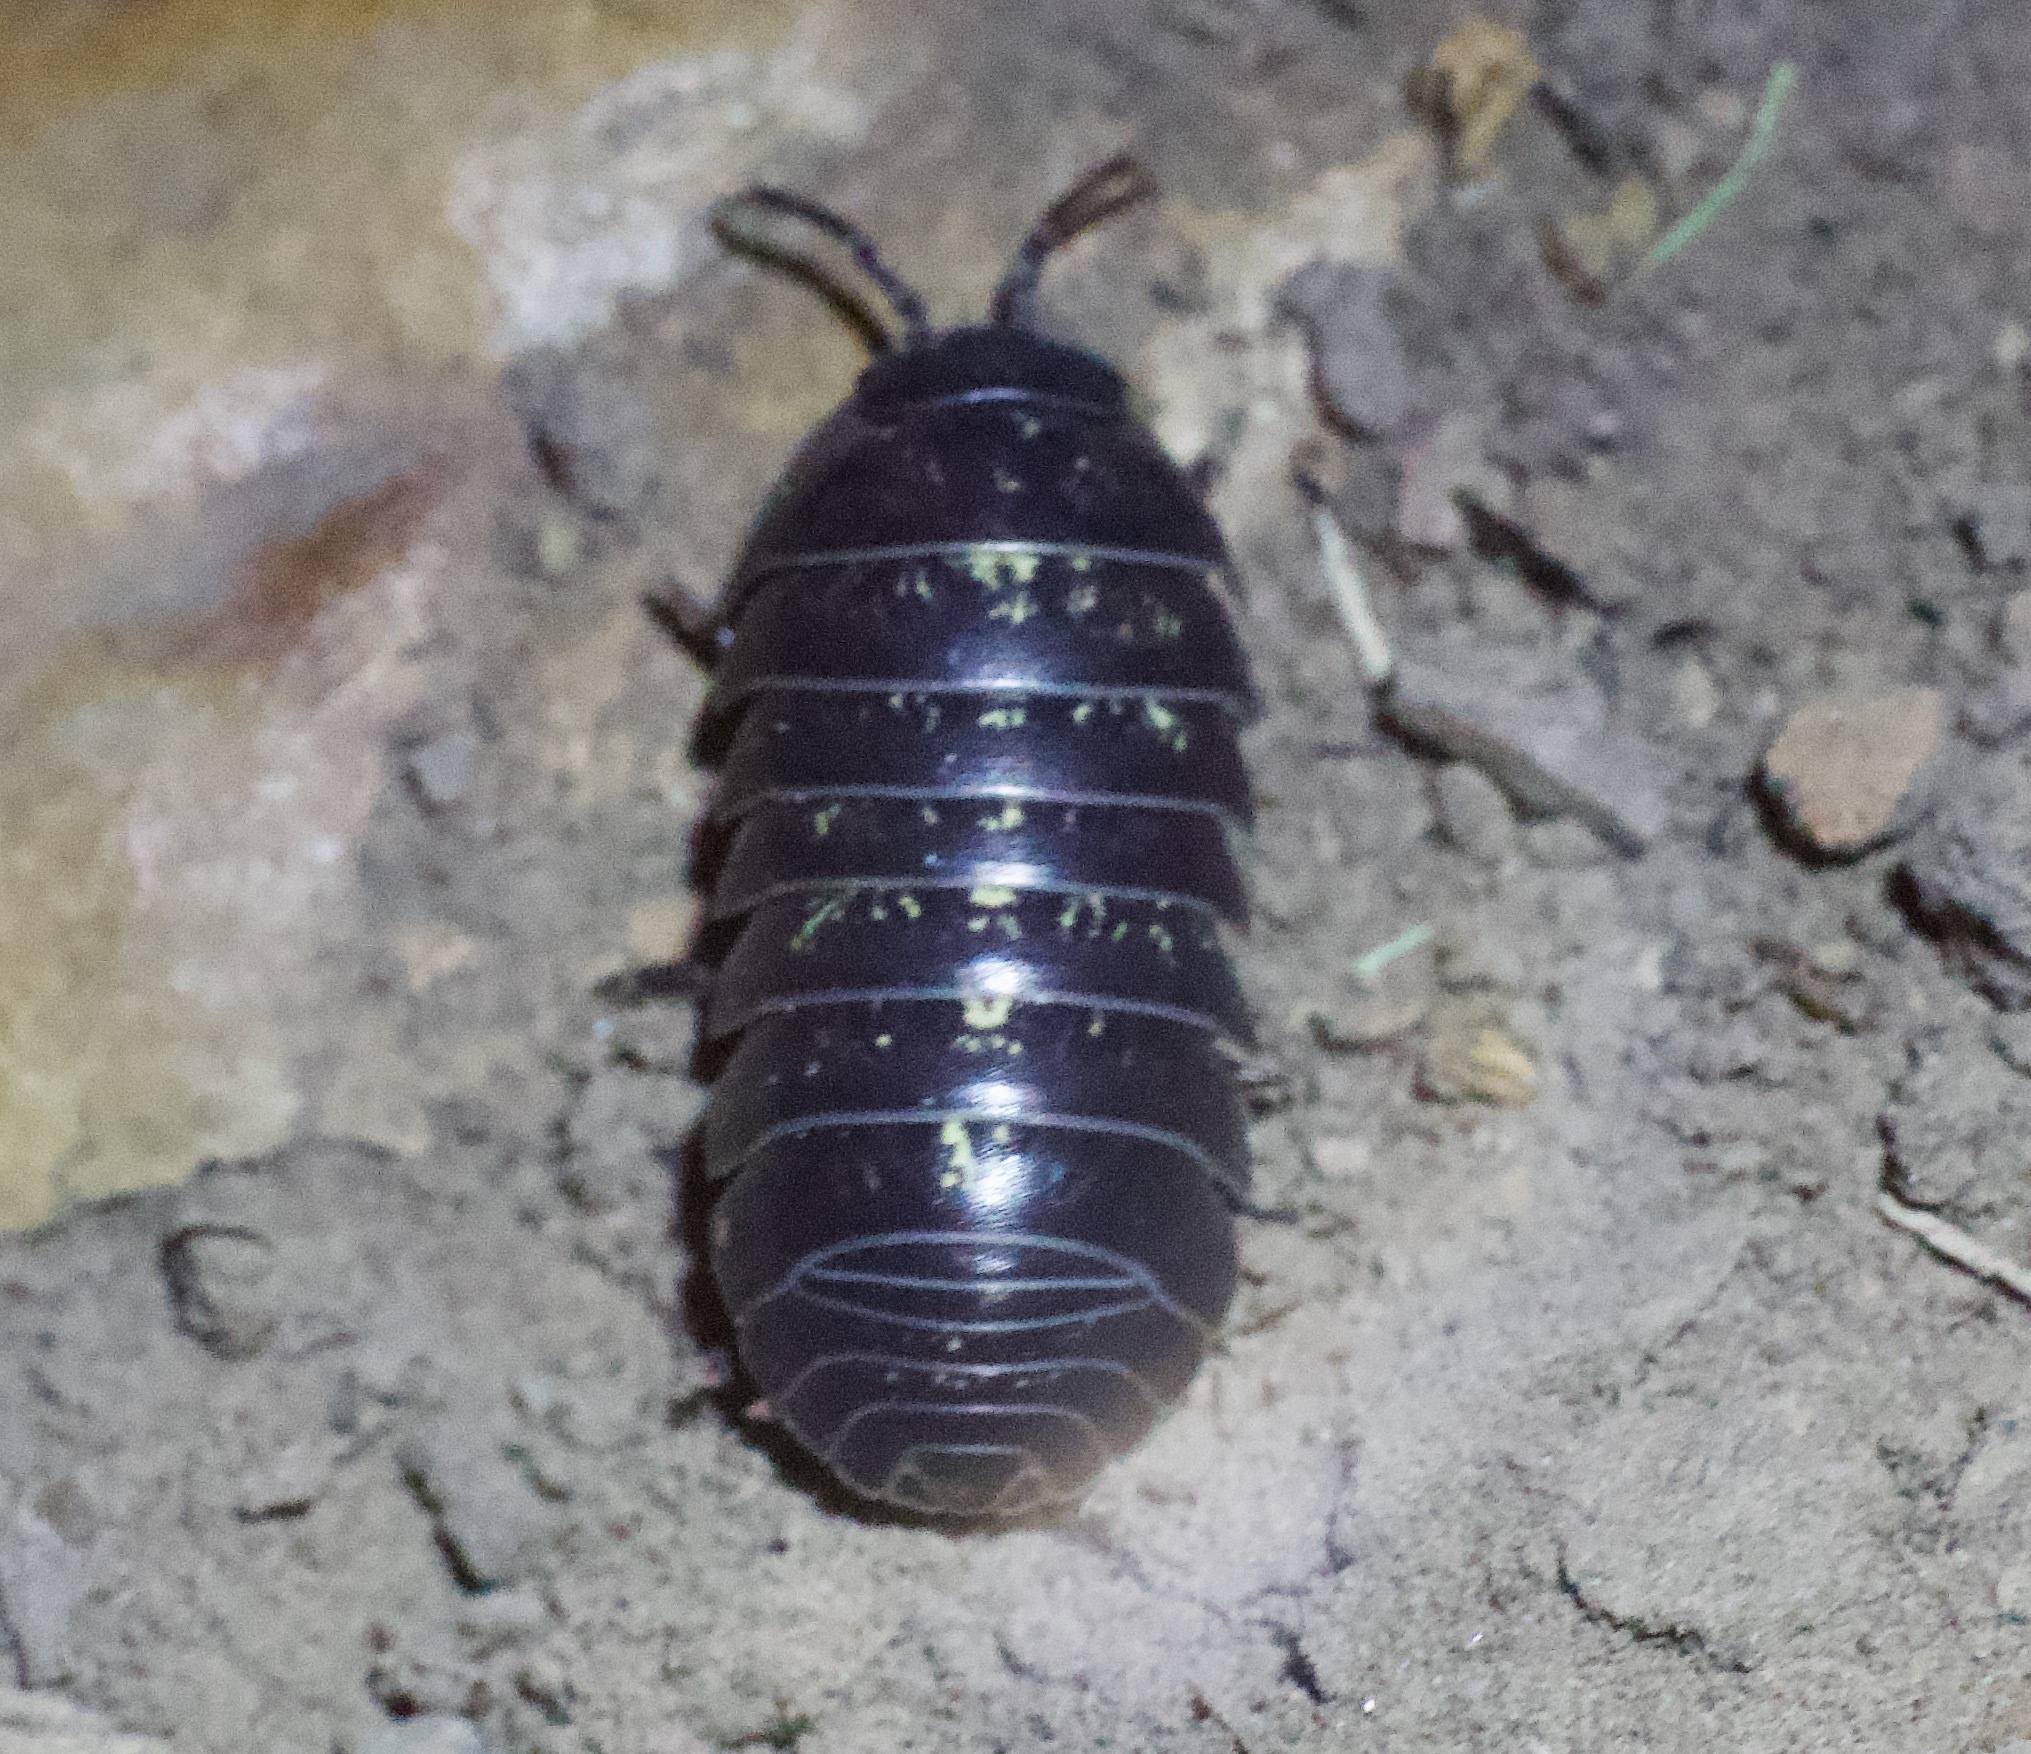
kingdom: Animalia
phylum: Arthropoda
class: Malacostraca
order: Isopoda
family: Armadillidiidae
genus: Armadillidium
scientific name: Armadillidium vulgare
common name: Common pill woodlouse
